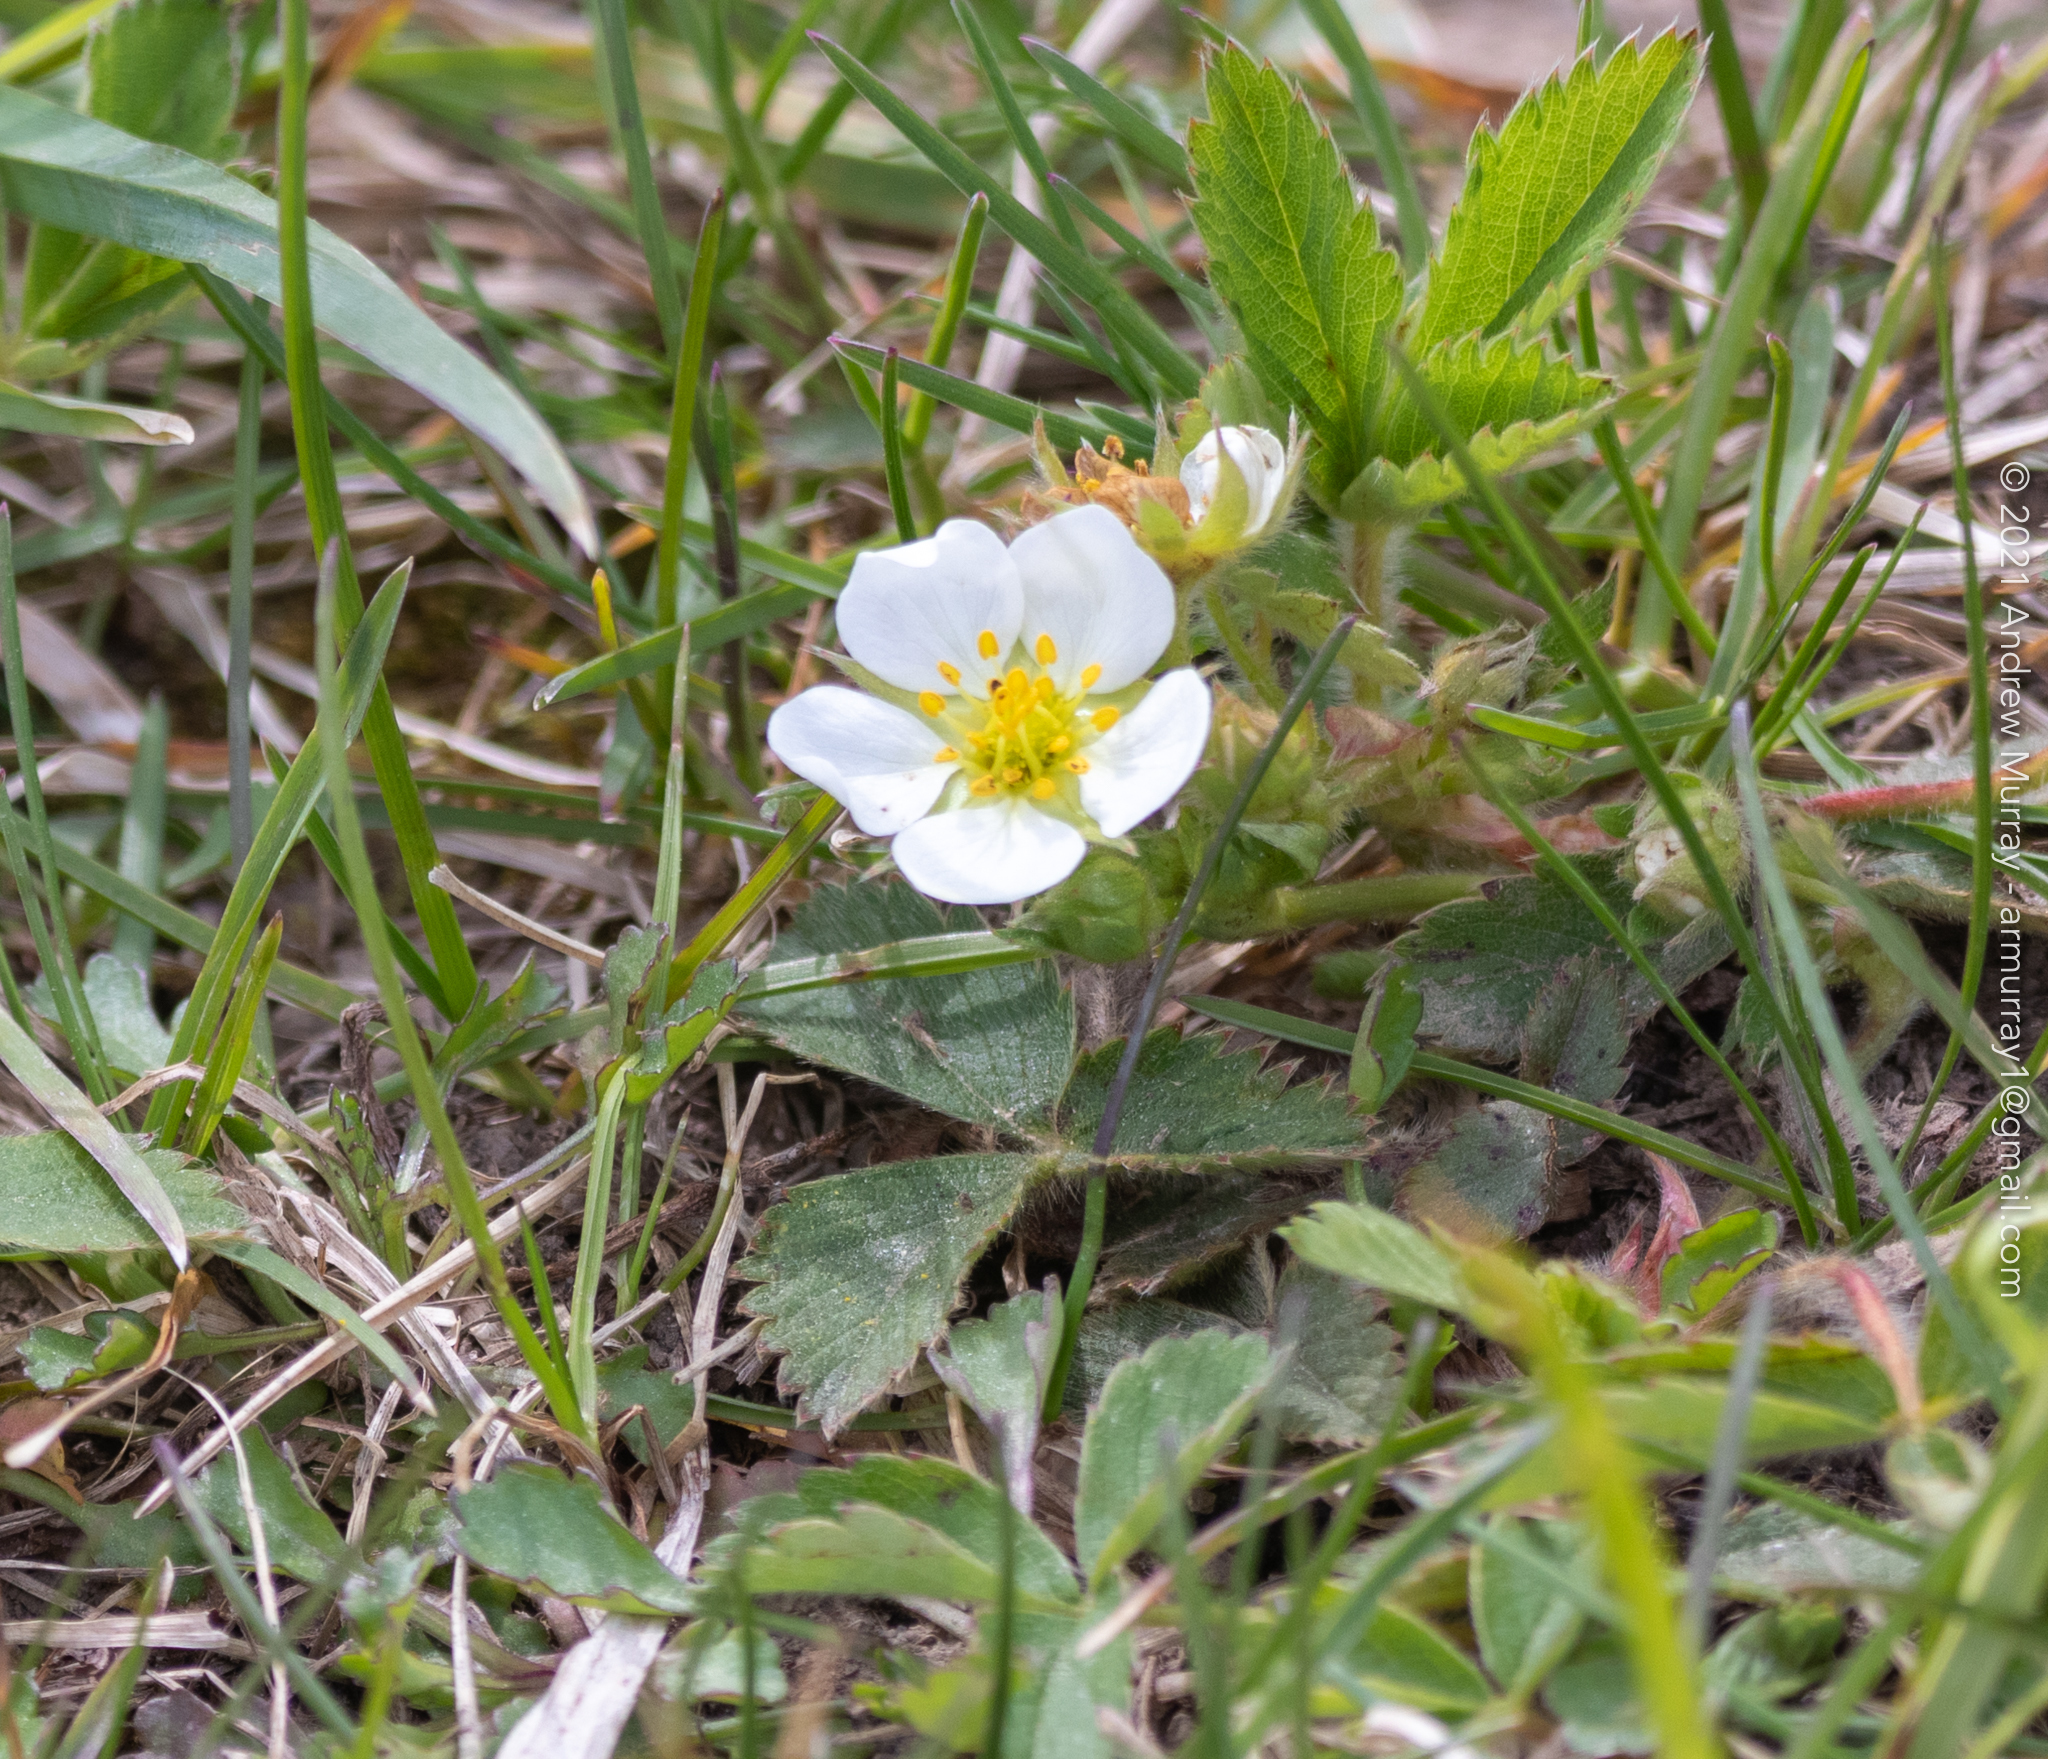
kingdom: Plantae
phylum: Tracheophyta
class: Magnoliopsida
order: Rosales
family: Rosaceae
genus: Fragaria
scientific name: Fragaria vesca
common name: Wild strawberry
